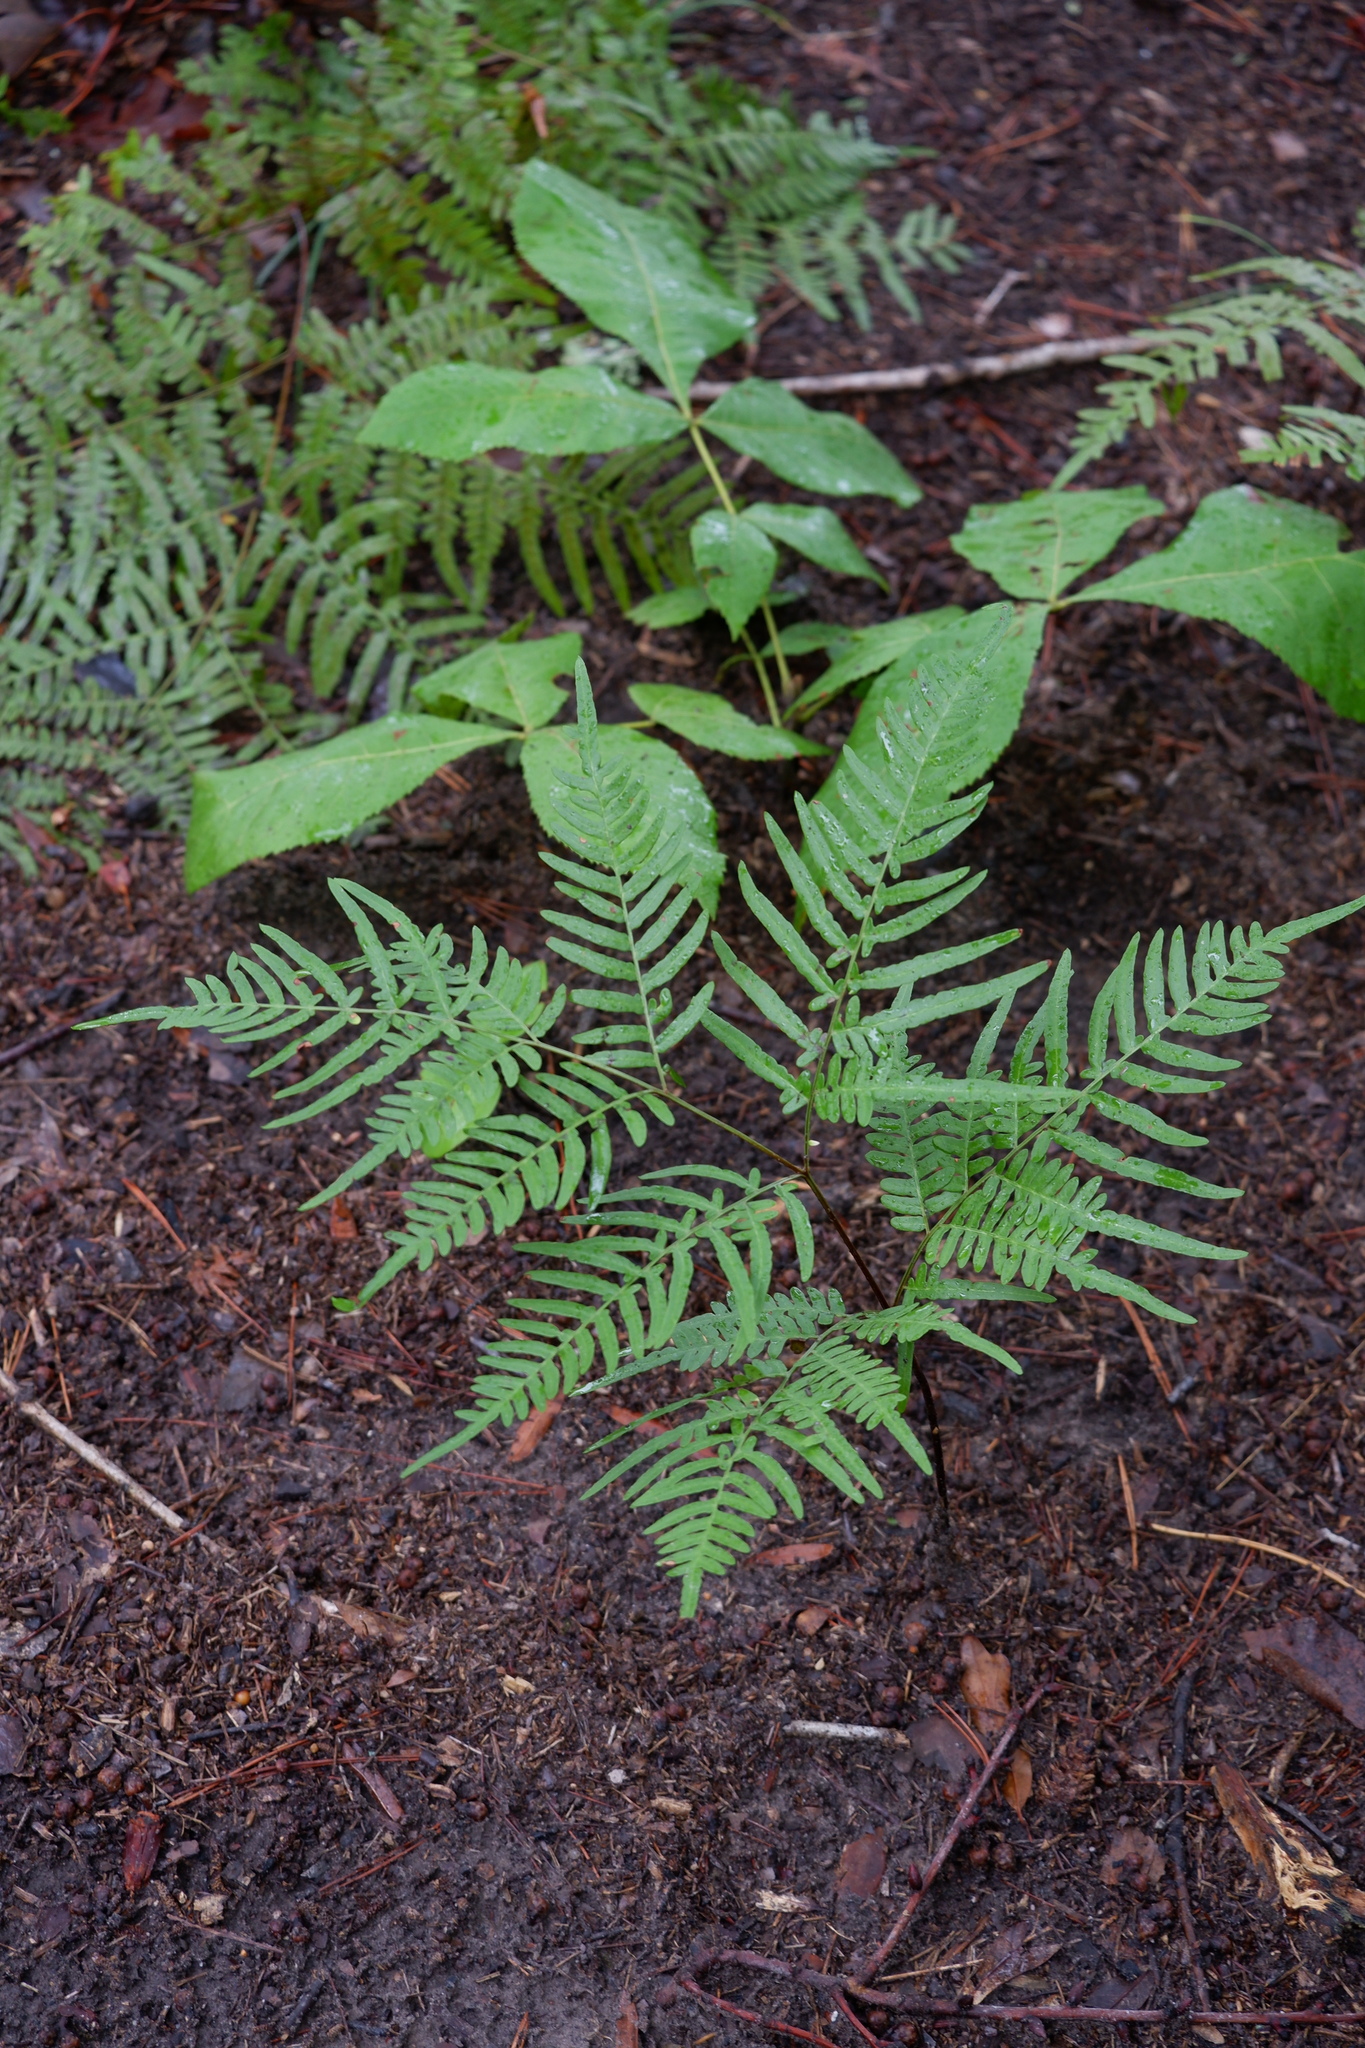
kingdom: Plantae
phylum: Tracheophyta
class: Polypodiopsida
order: Polypodiales
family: Dennstaedtiaceae
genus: Pteridium
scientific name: Pteridium aquilinum
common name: Bracken
